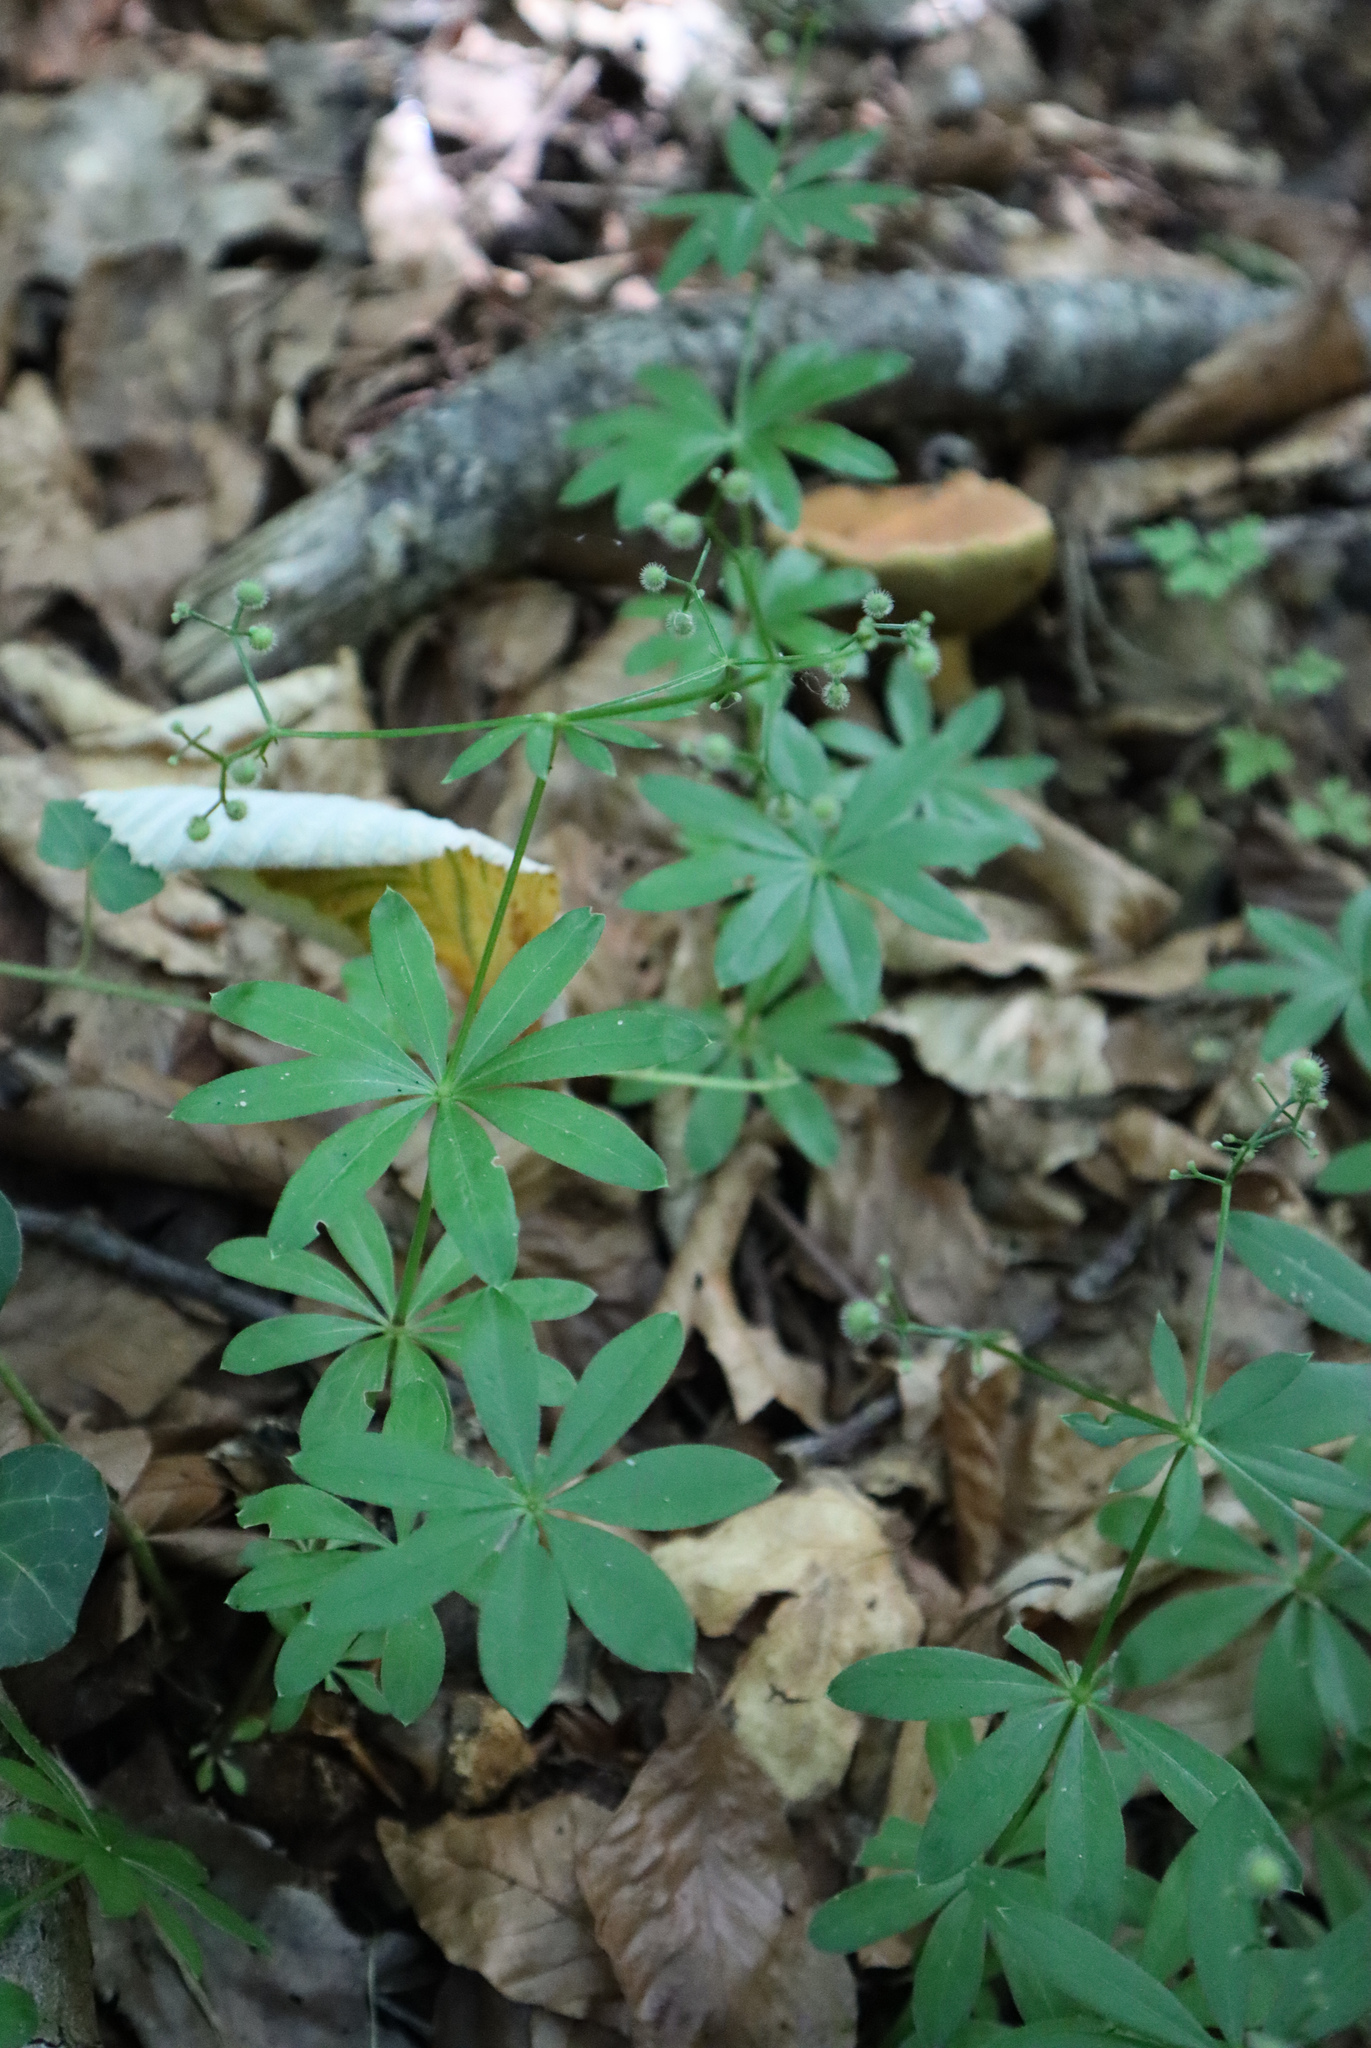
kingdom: Plantae
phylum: Tracheophyta
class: Magnoliopsida
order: Gentianales
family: Rubiaceae
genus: Galium
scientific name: Galium odoratum
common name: Sweet woodruff
